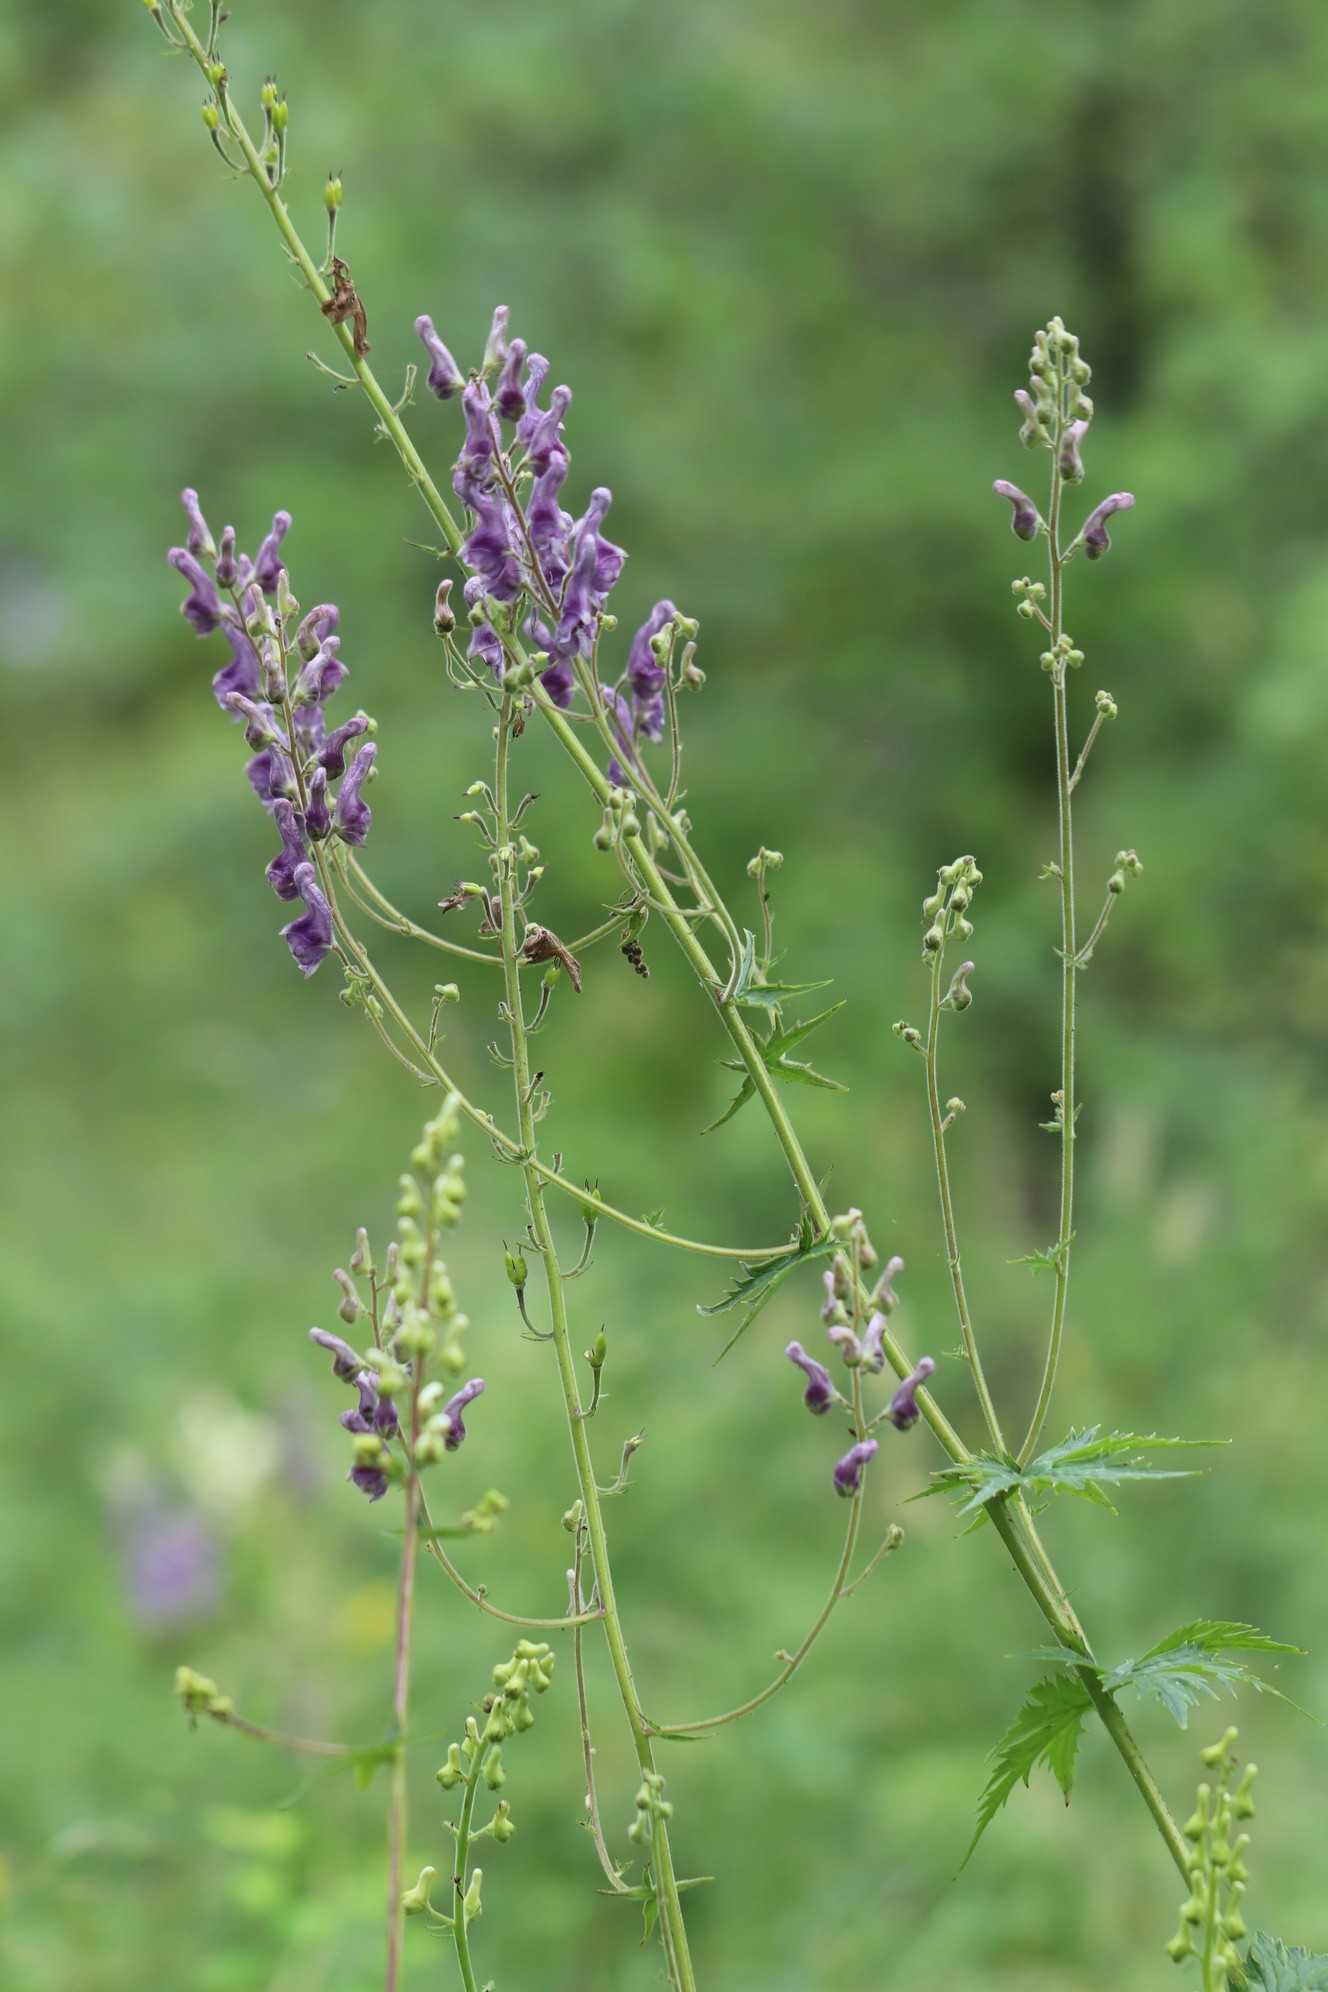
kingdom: Plantae
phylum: Tracheophyta
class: Magnoliopsida
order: Ranunculales
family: Ranunculaceae
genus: Aconitum
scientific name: Aconitum septentrionale
